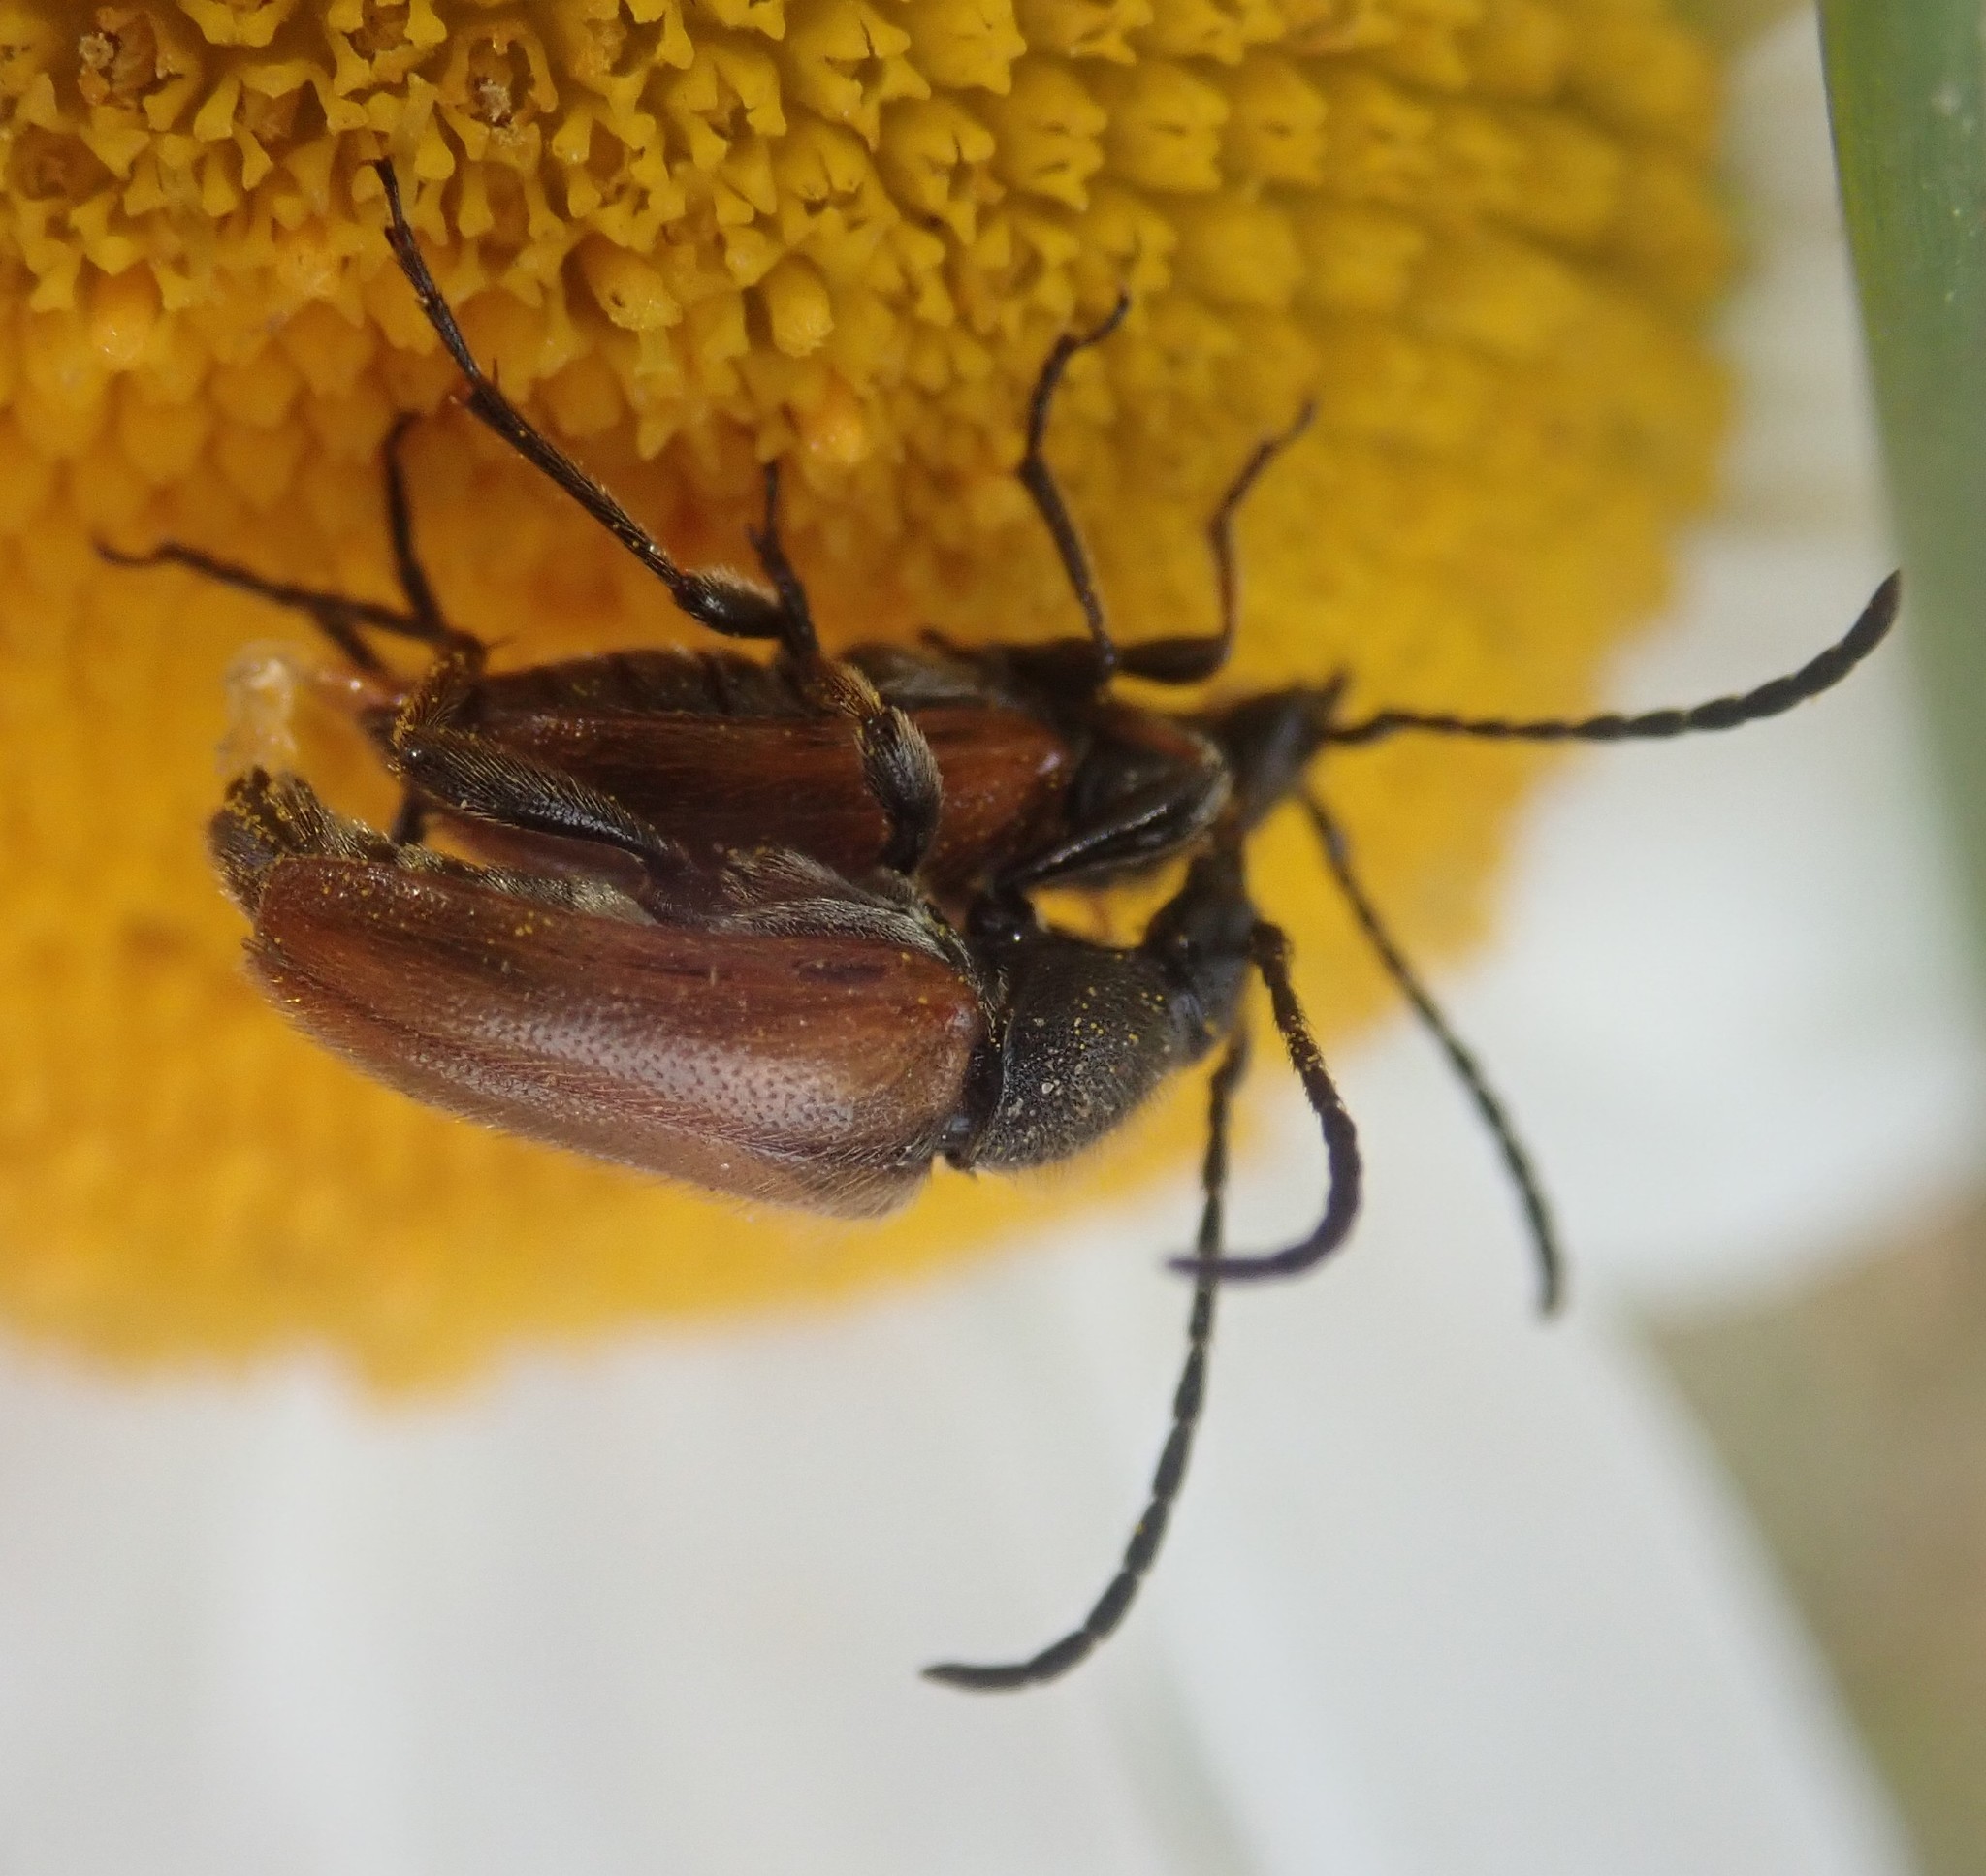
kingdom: Animalia
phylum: Arthropoda
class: Insecta
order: Coleoptera
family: Cerambycidae
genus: Pseudovadonia
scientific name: Pseudovadonia livida
